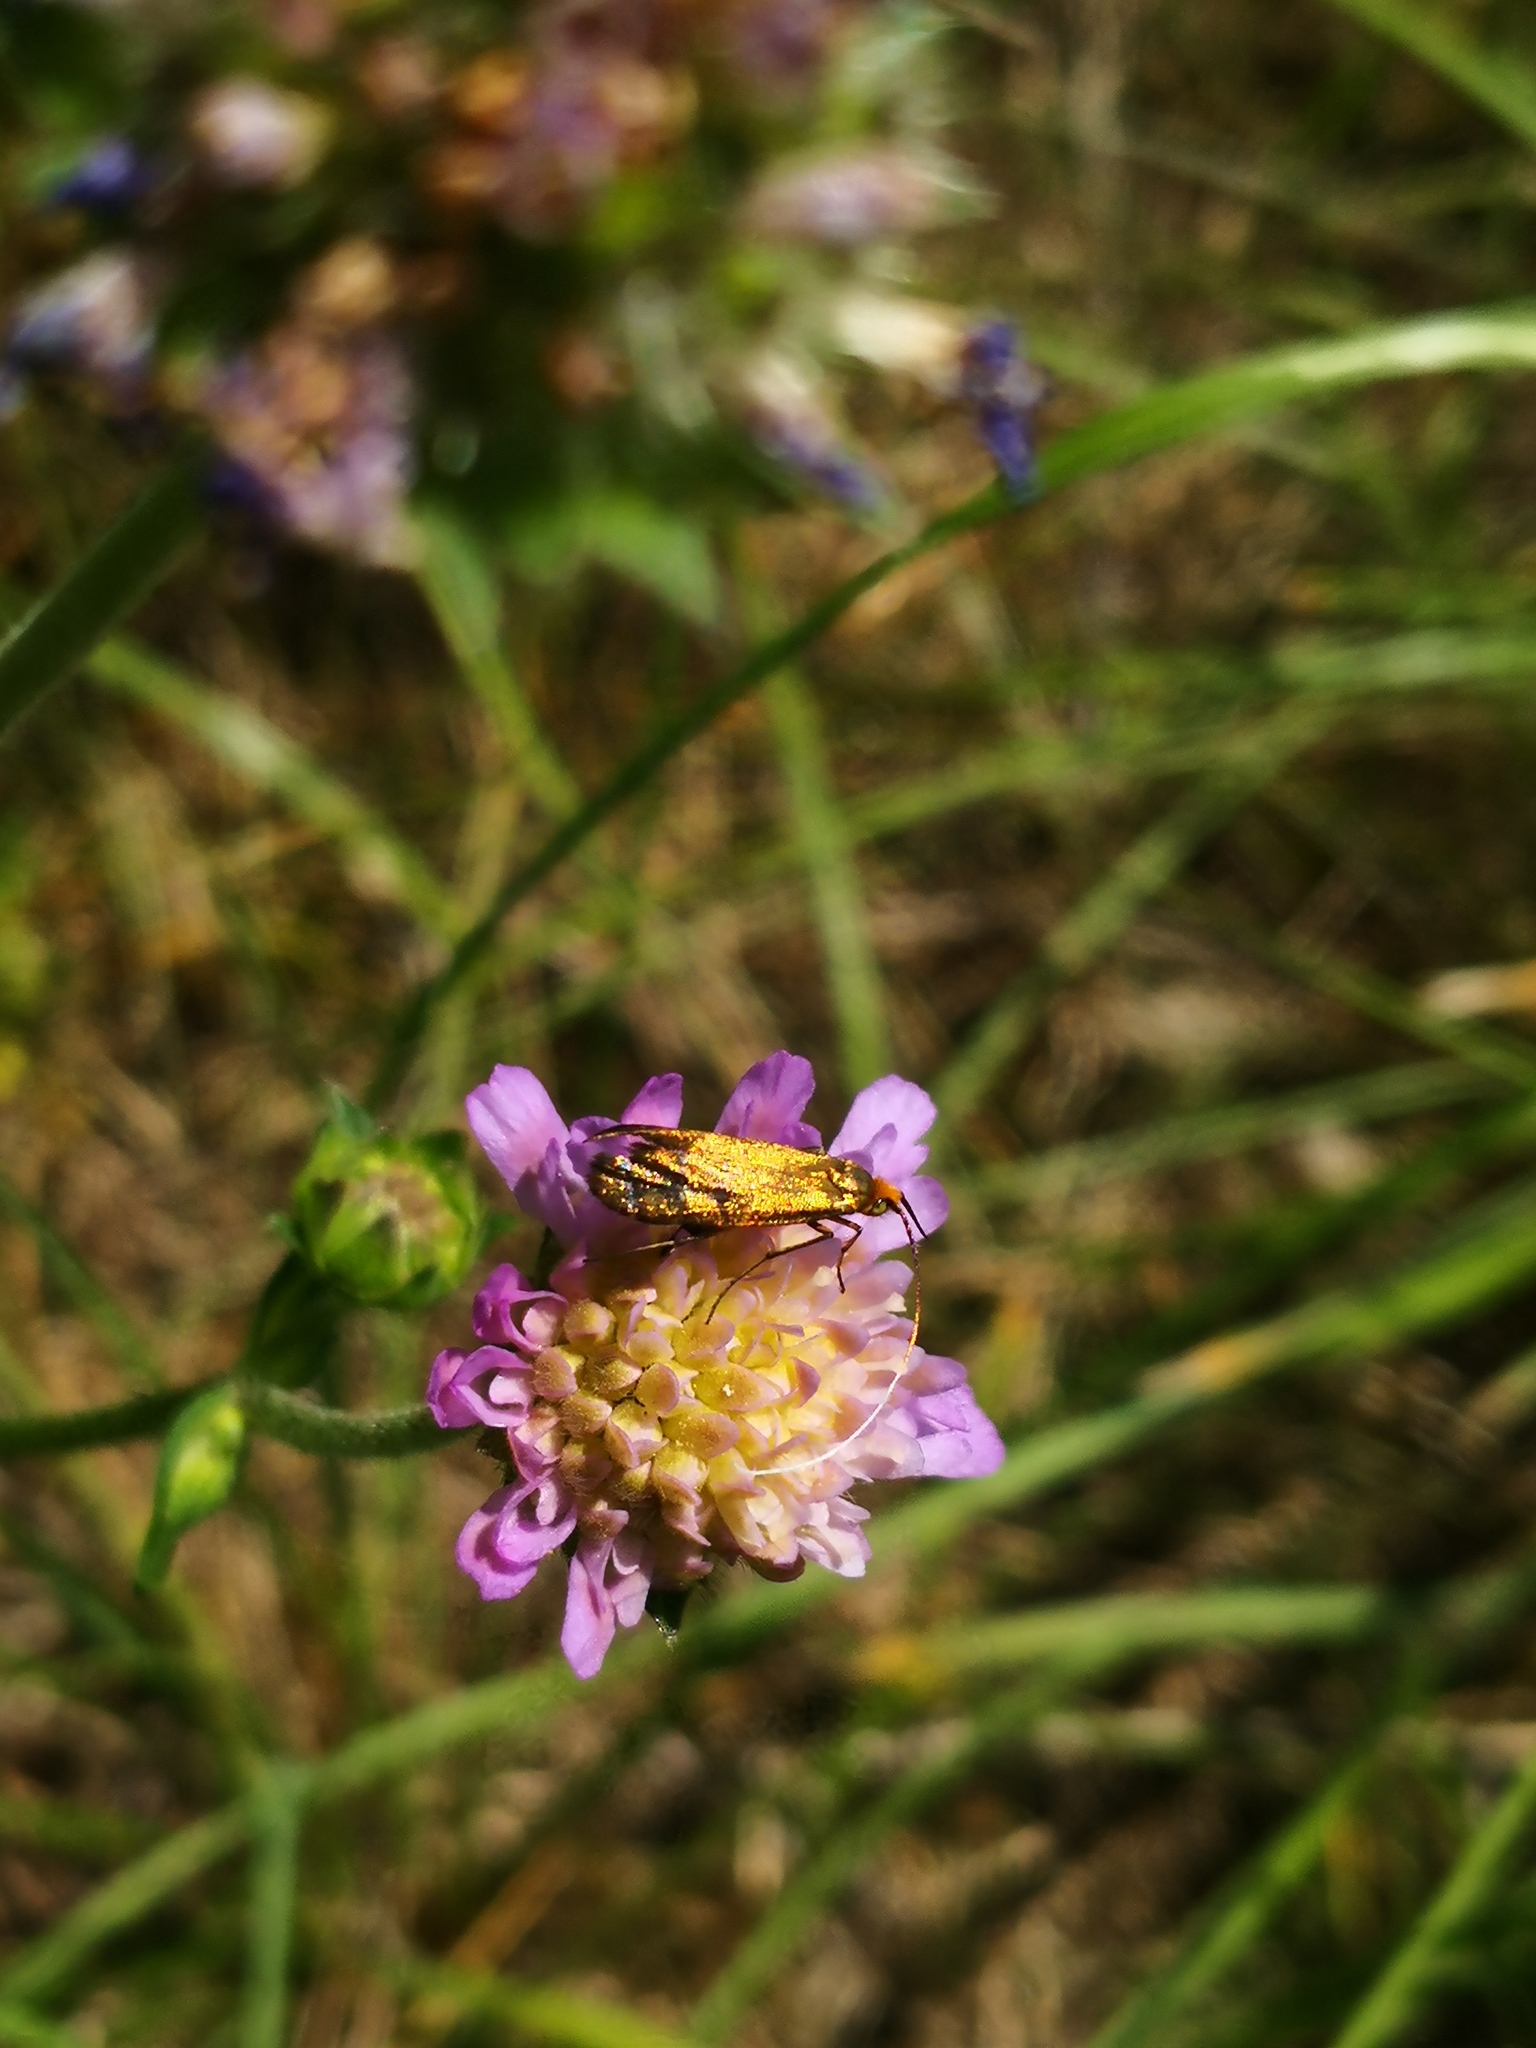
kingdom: Animalia
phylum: Arthropoda
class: Insecta
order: Lepidoptera
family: Adelidae
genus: Nemophora
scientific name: Nemophora metallica
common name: Brassy long-horn
